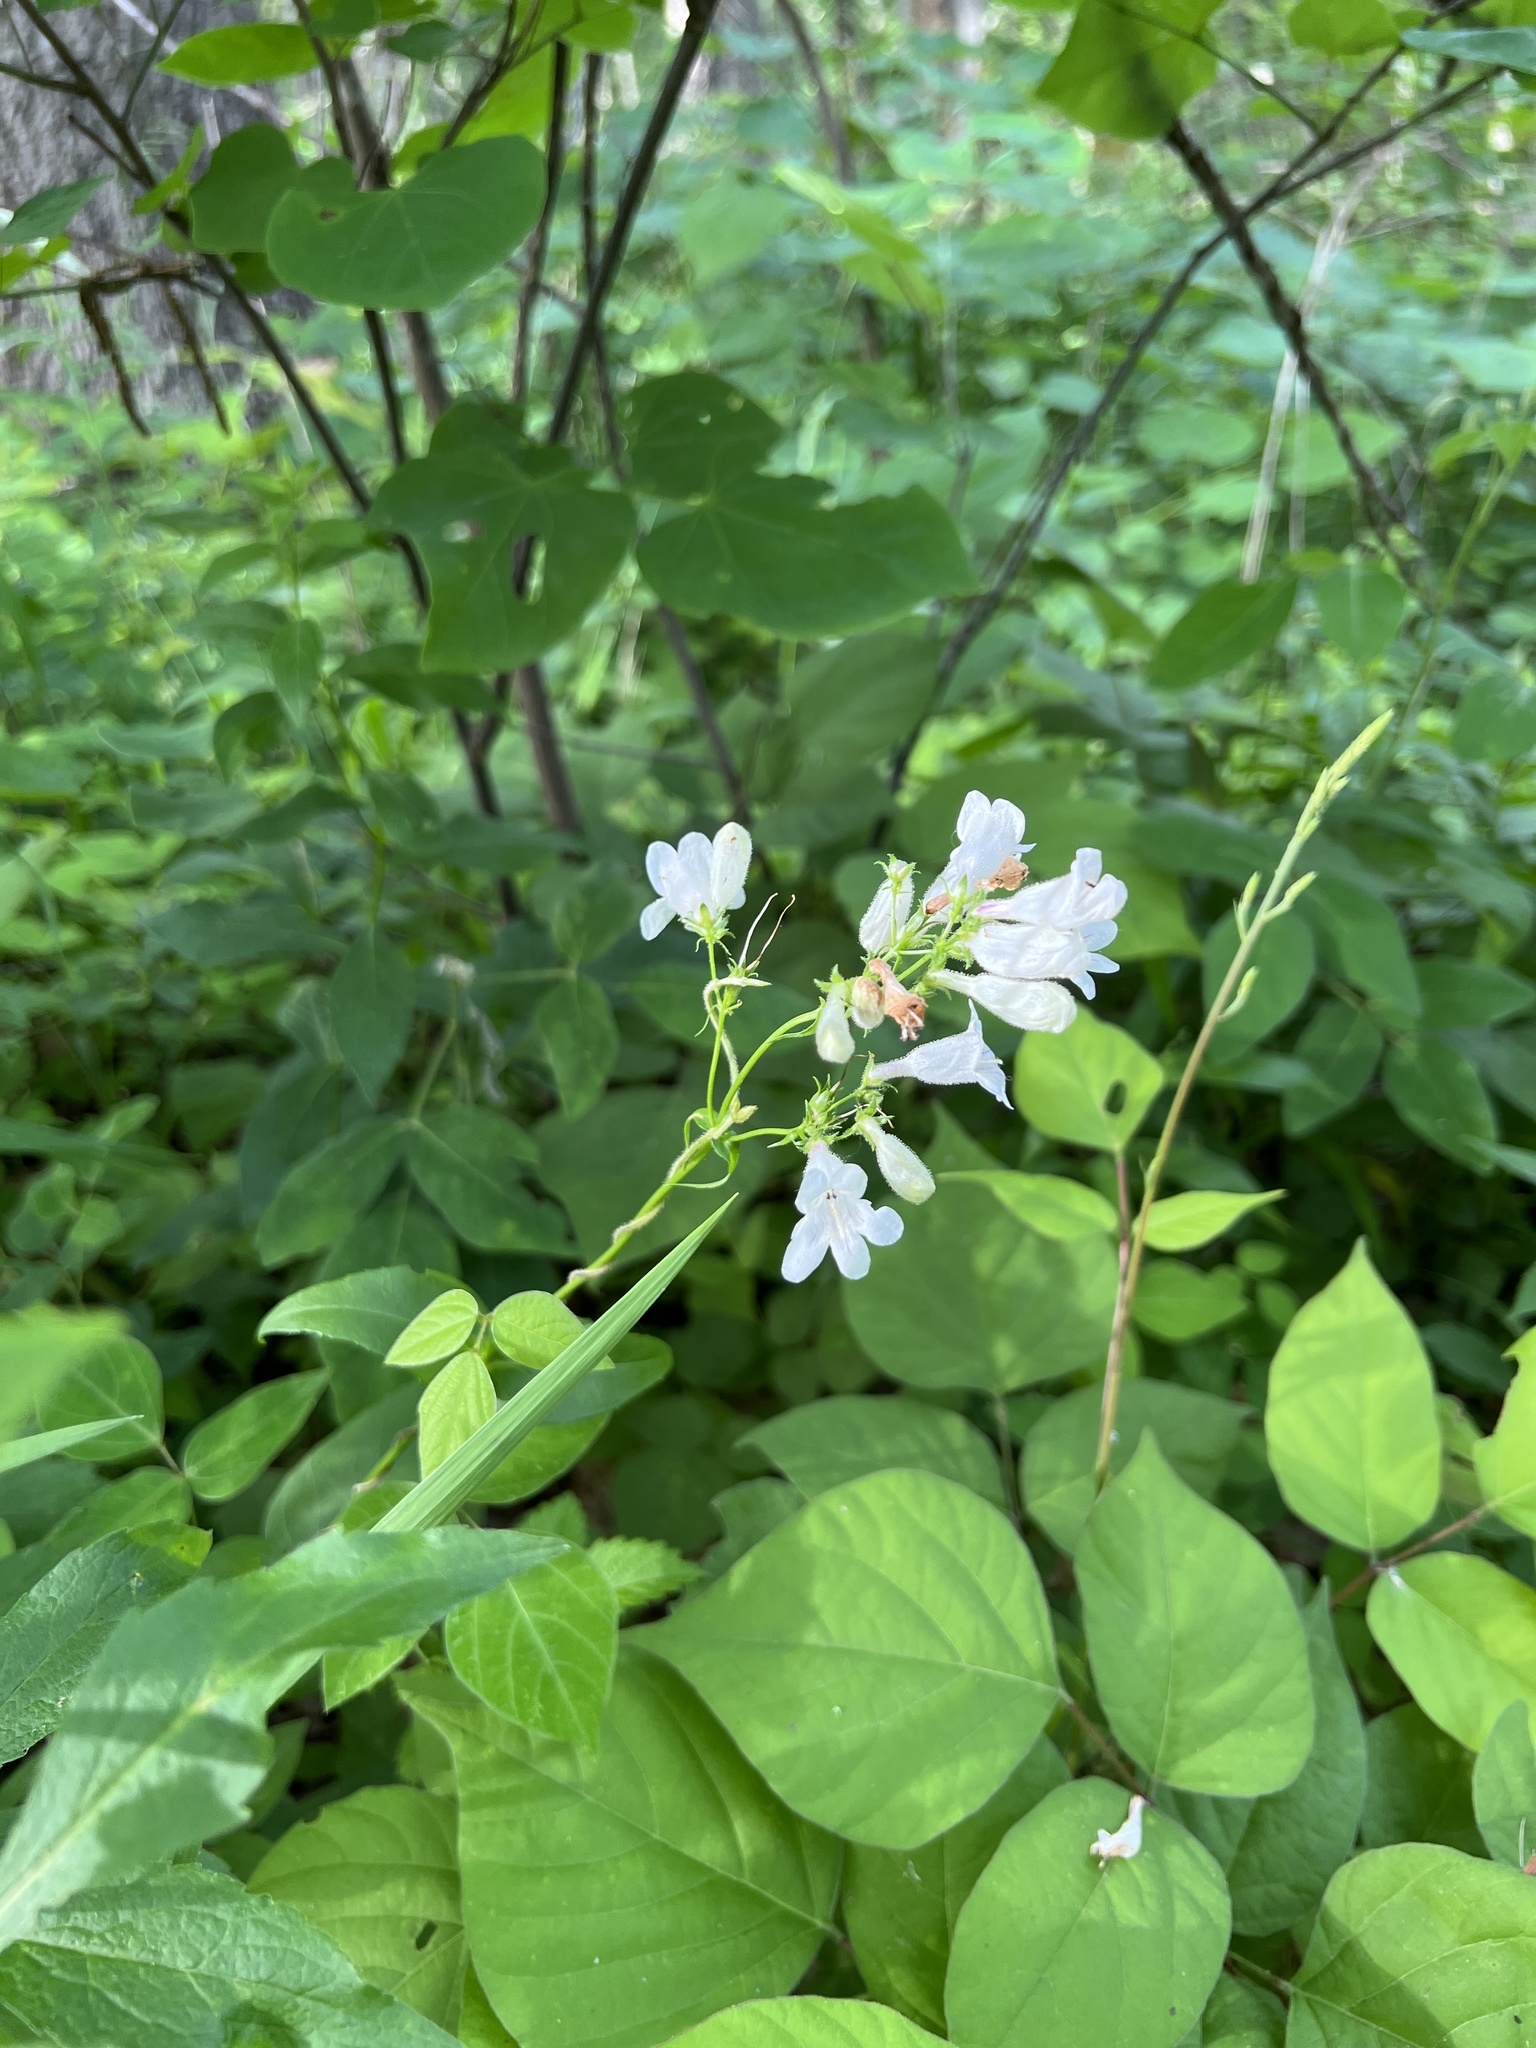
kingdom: Plantae
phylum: Tracheophyta
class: Magnoliopsida
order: Lamiales
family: Plantaginaceae
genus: Penstemon
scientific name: Penstemon digitalis
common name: Foxglove beardtongue
